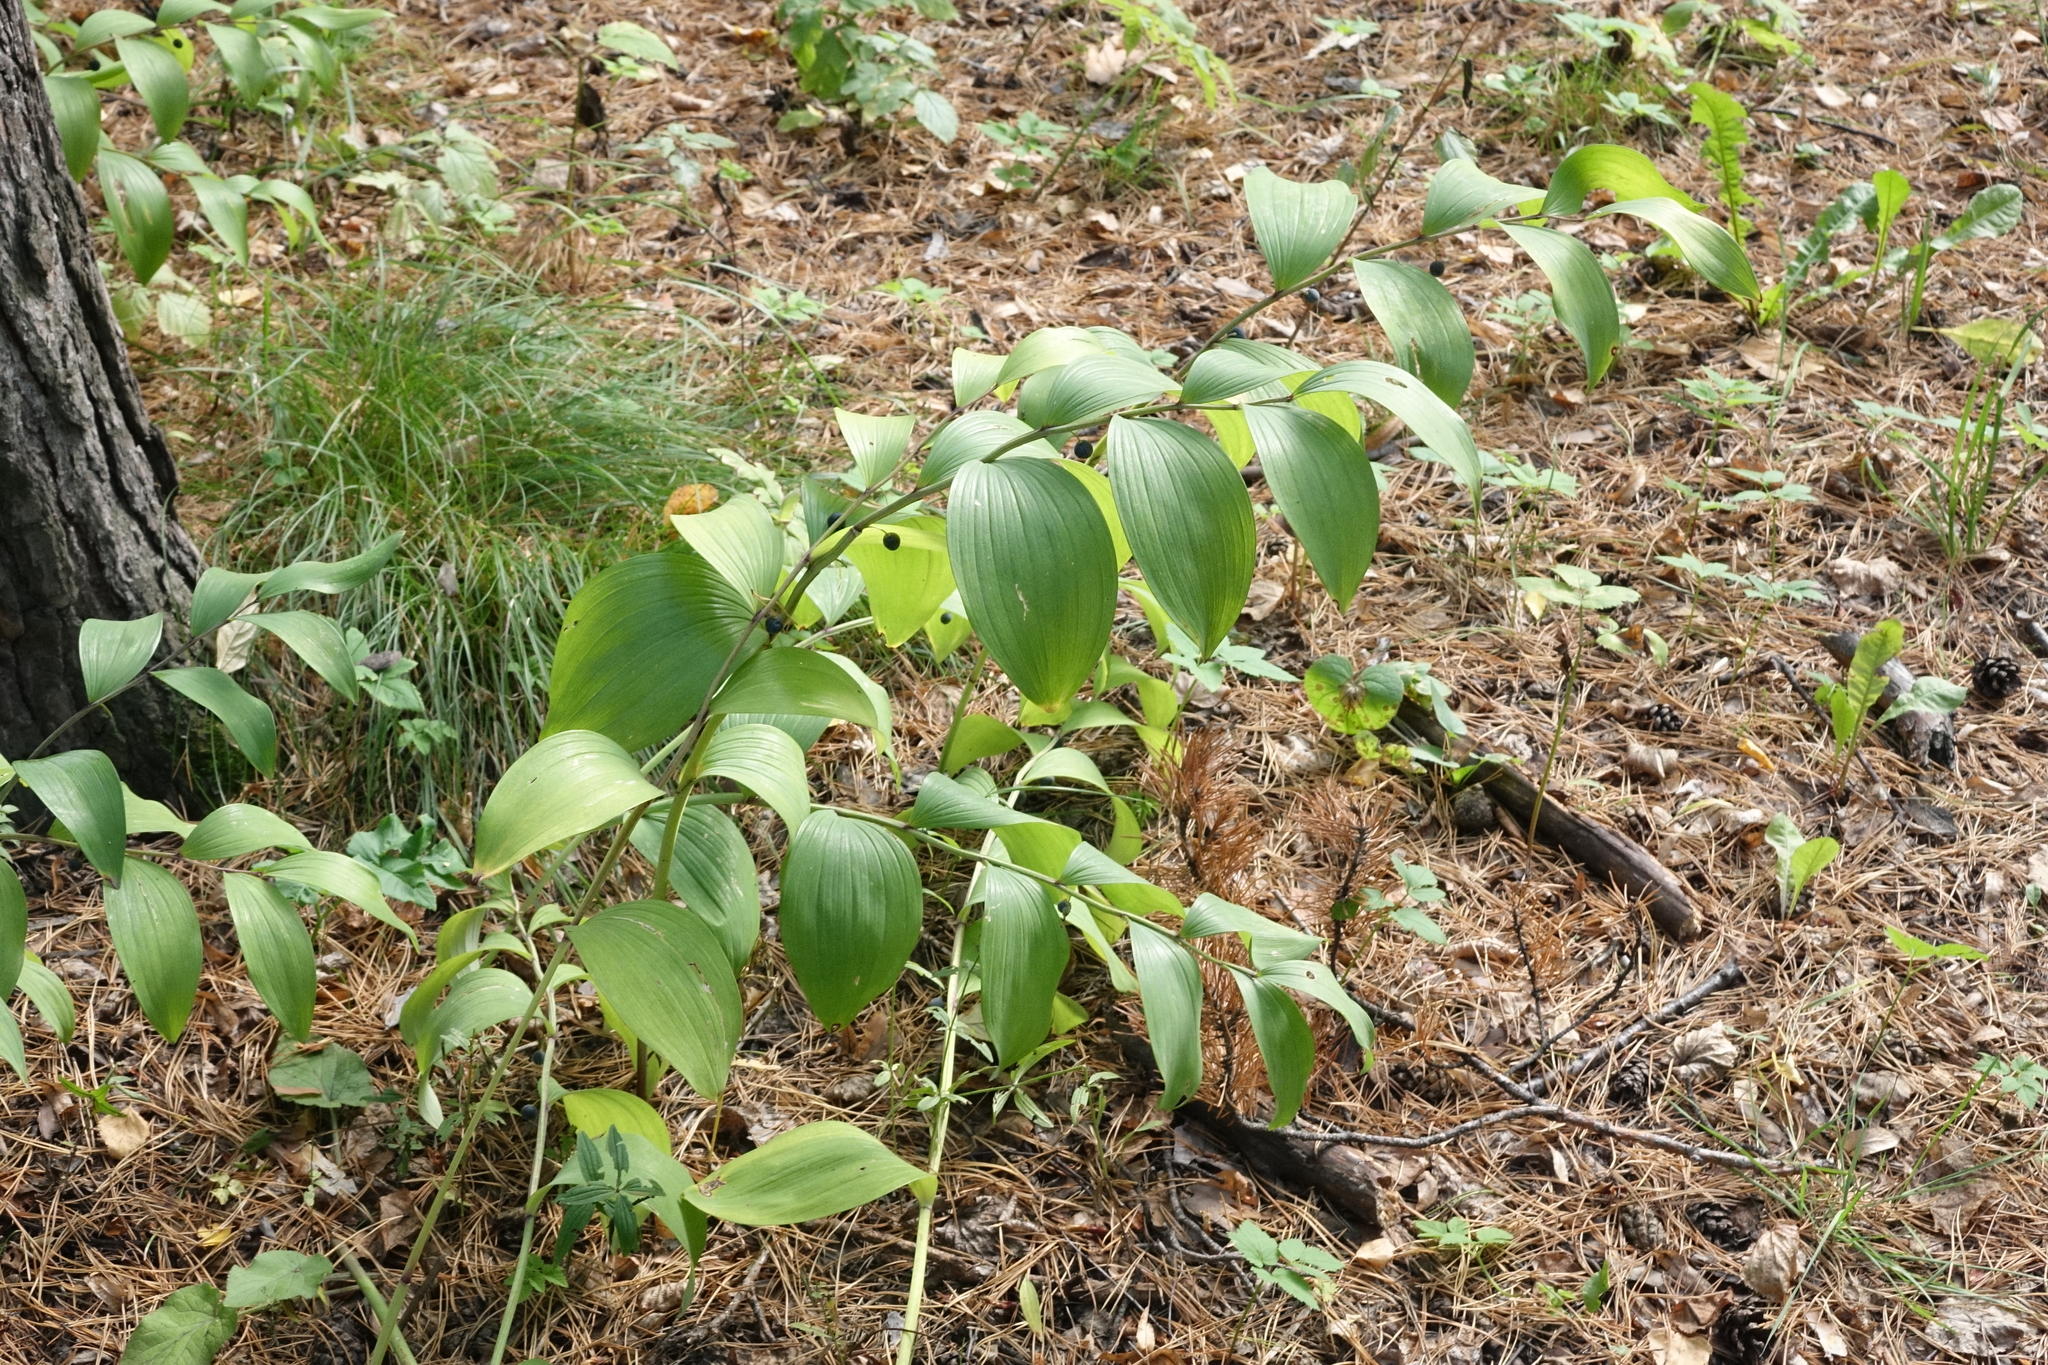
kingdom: Plantae
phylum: Tracheophyta
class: Liliopsida
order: Asparagales
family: Asparagaceae
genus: Polygonatum
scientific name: Polygonatum odoratum
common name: Angular solomon's-seal
